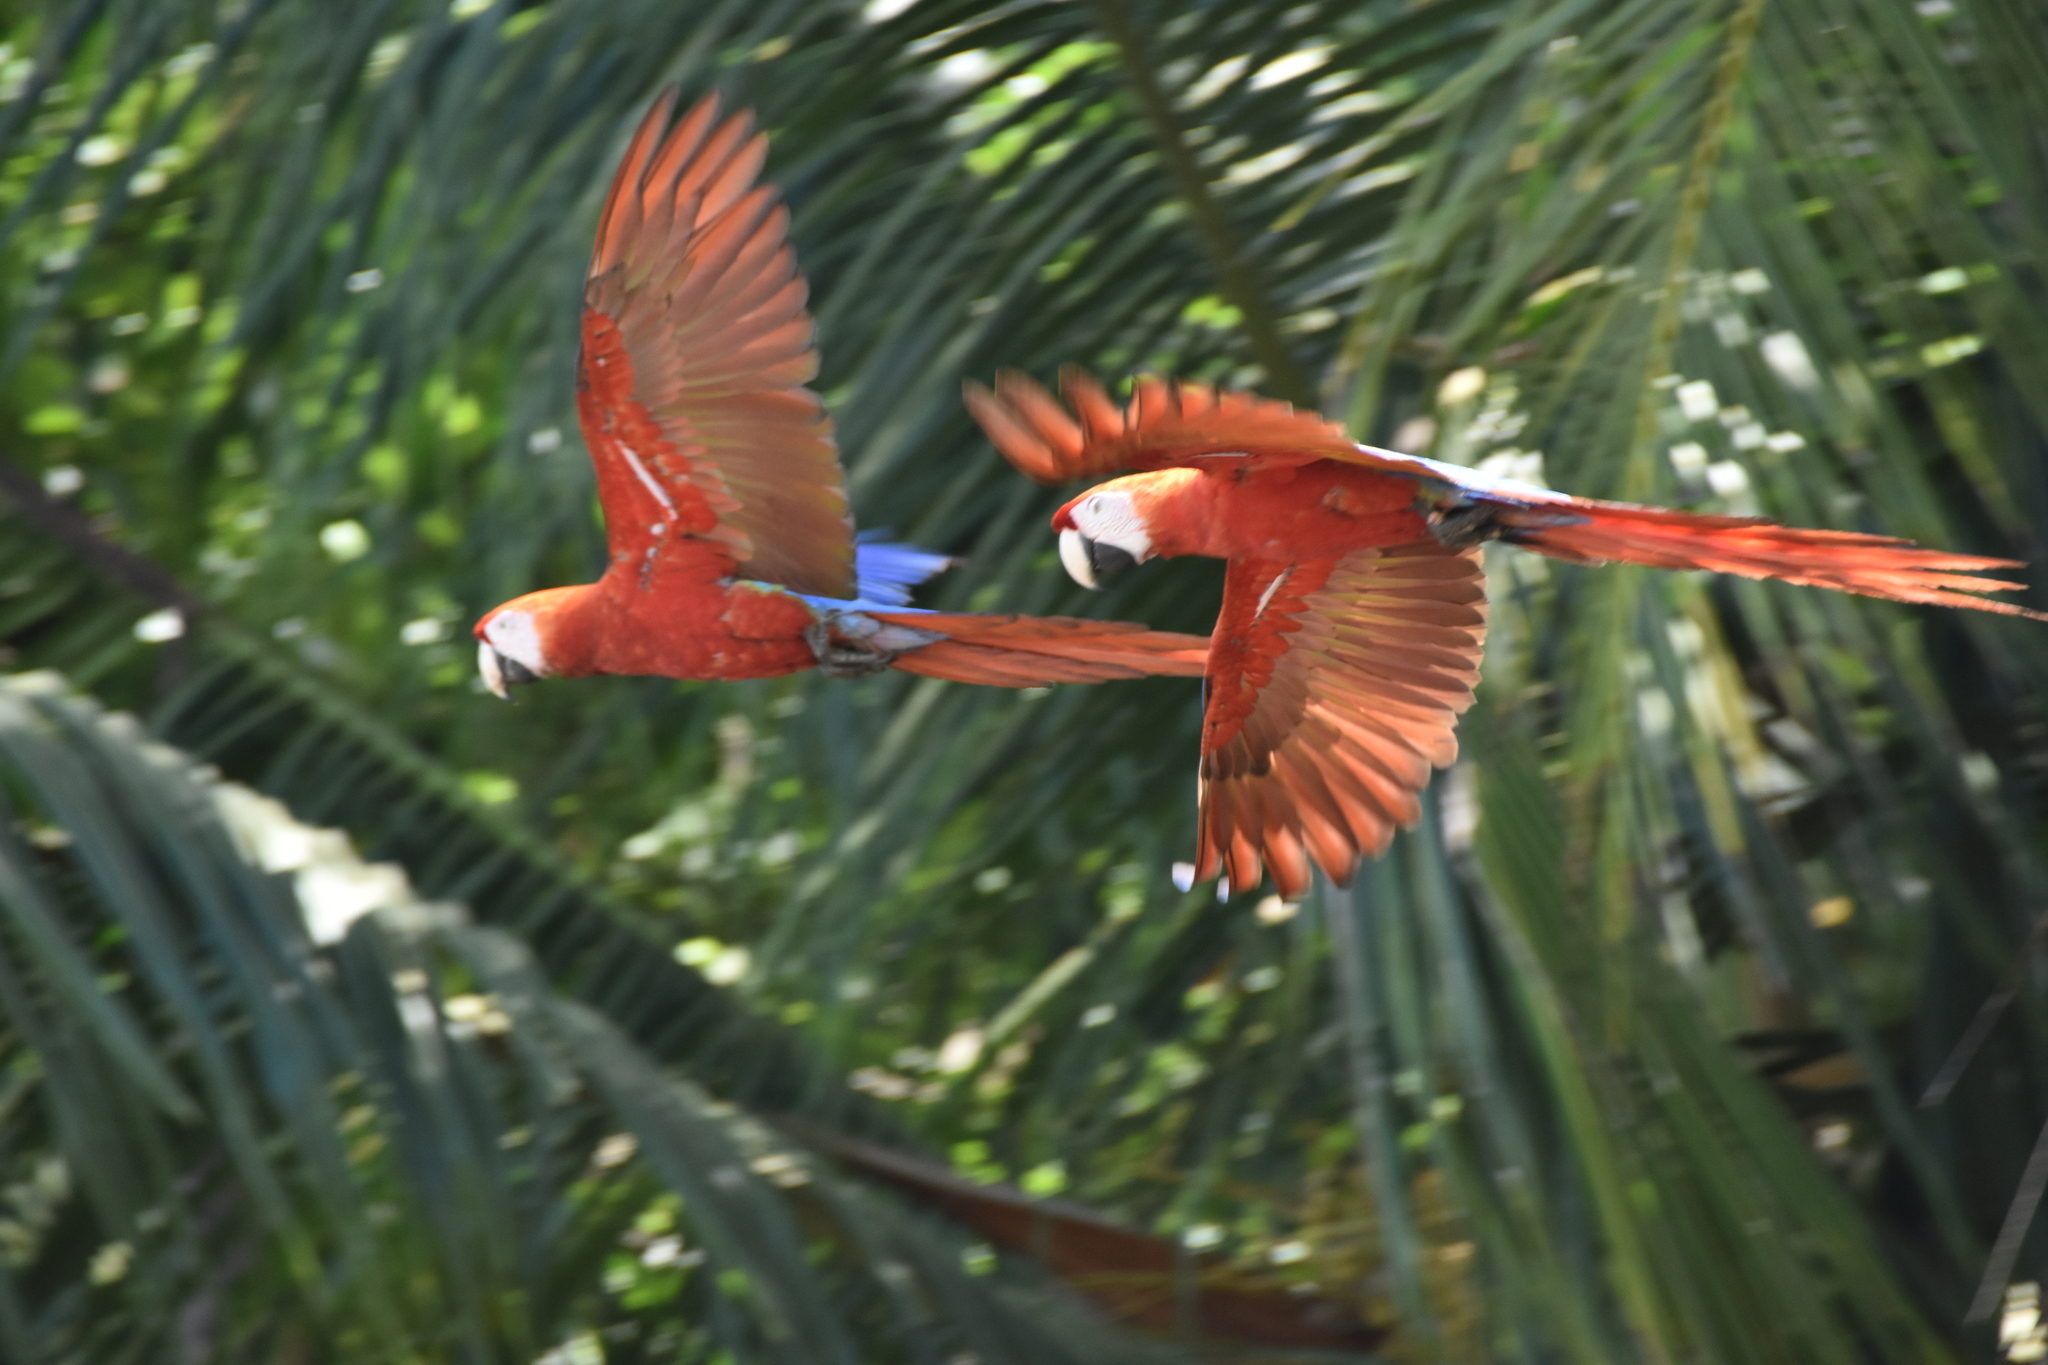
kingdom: Animalia
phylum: Chordata
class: Aves
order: Psittaciformes
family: Psittacidae
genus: Ara
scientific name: Ara macao
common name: Scarlet macaw
